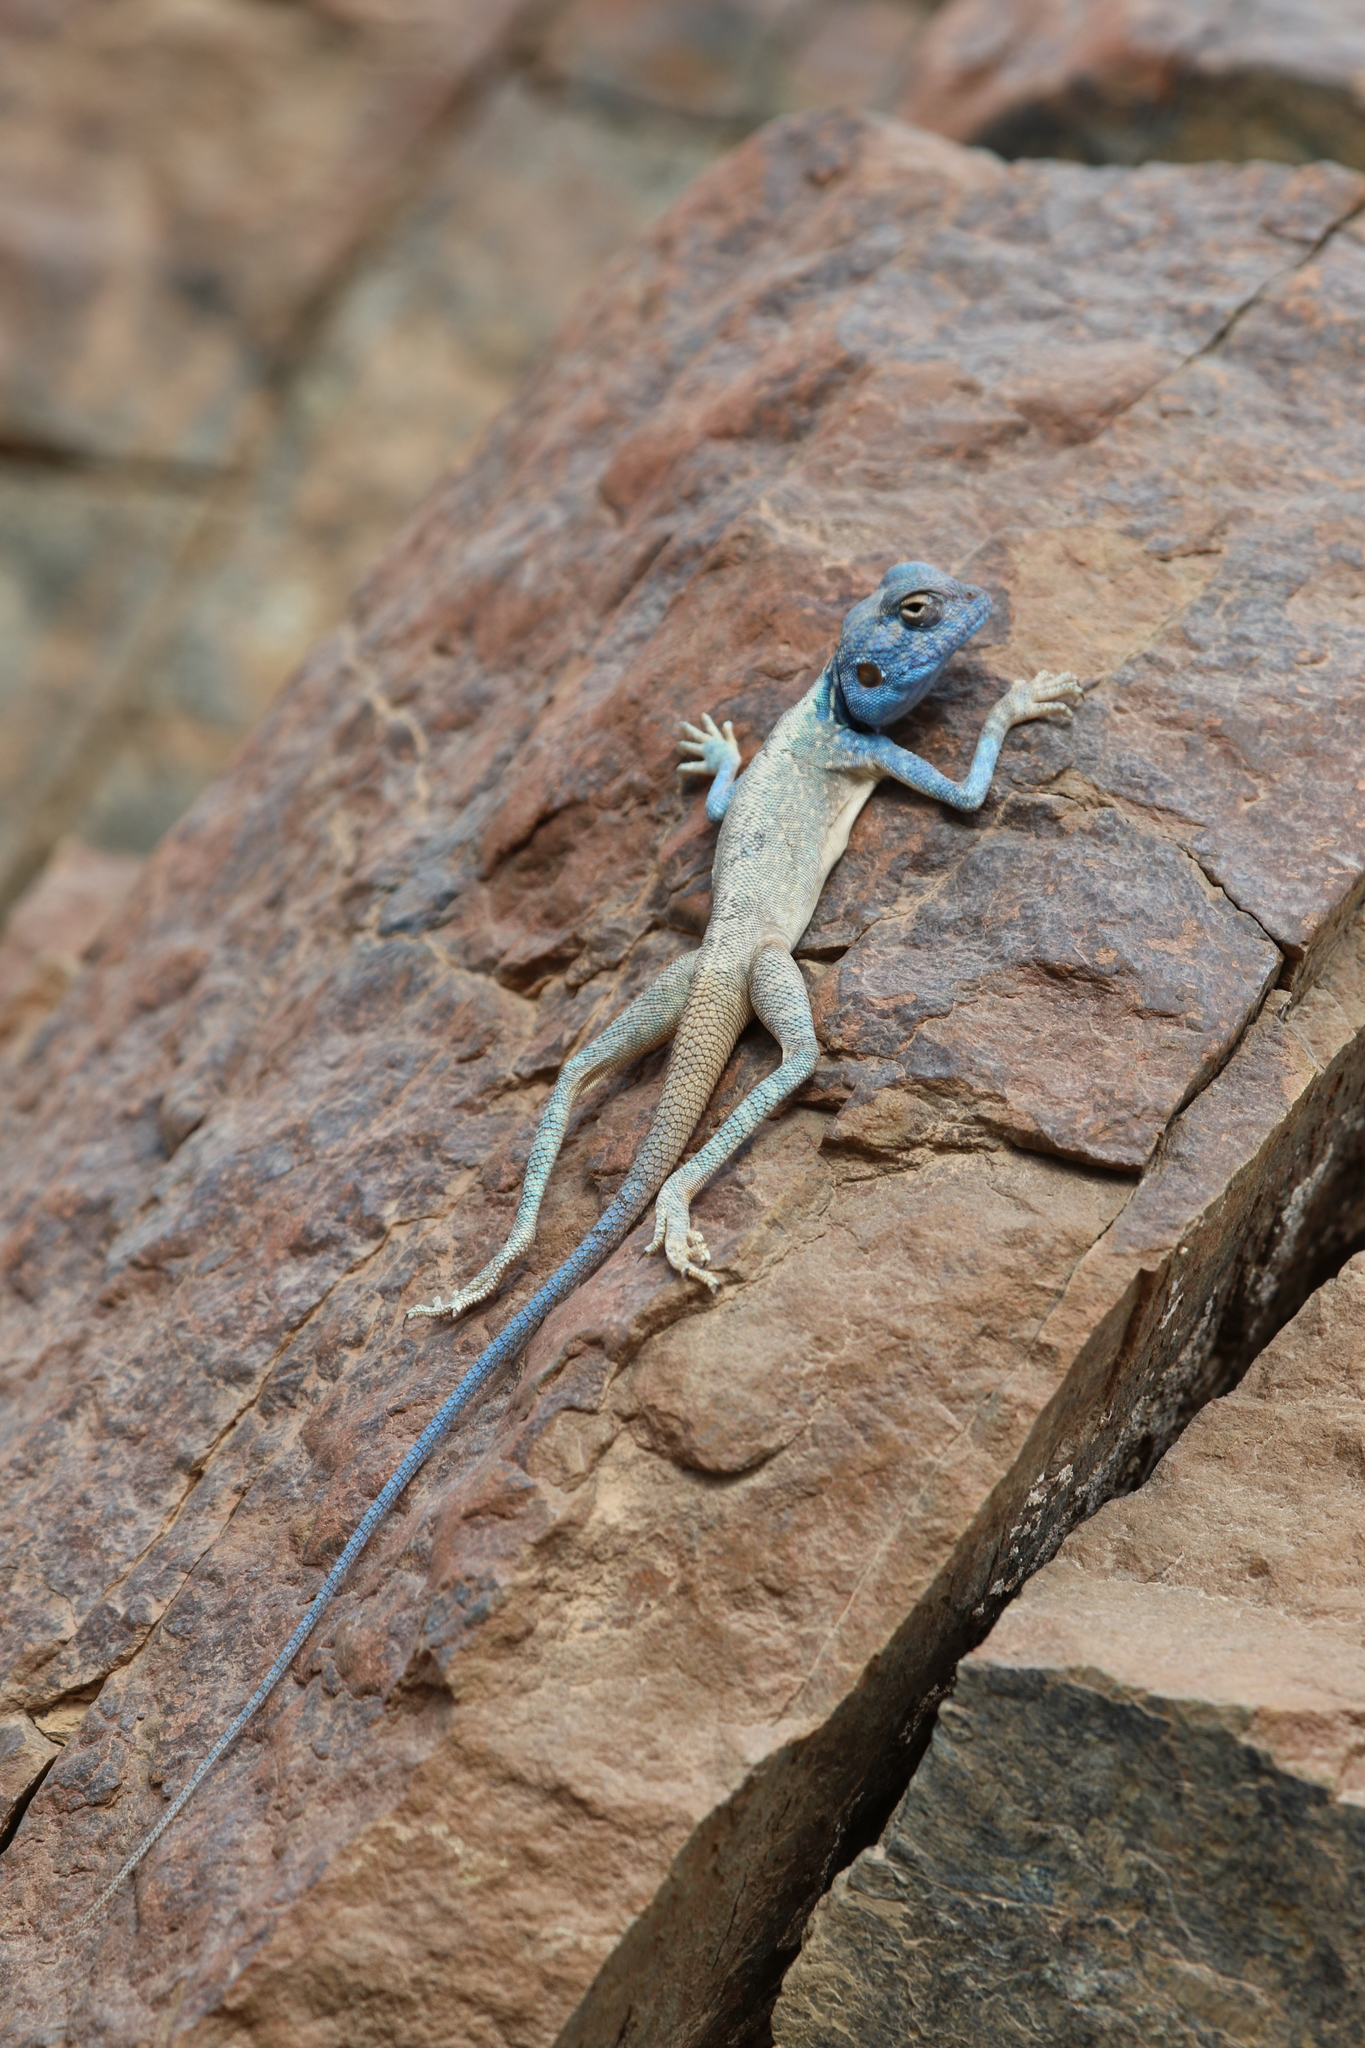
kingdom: Animalia
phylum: Chordata
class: Squamata
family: Agamidae
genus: Pseudotrapelus
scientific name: Pseudotrapelus jensvindumi
